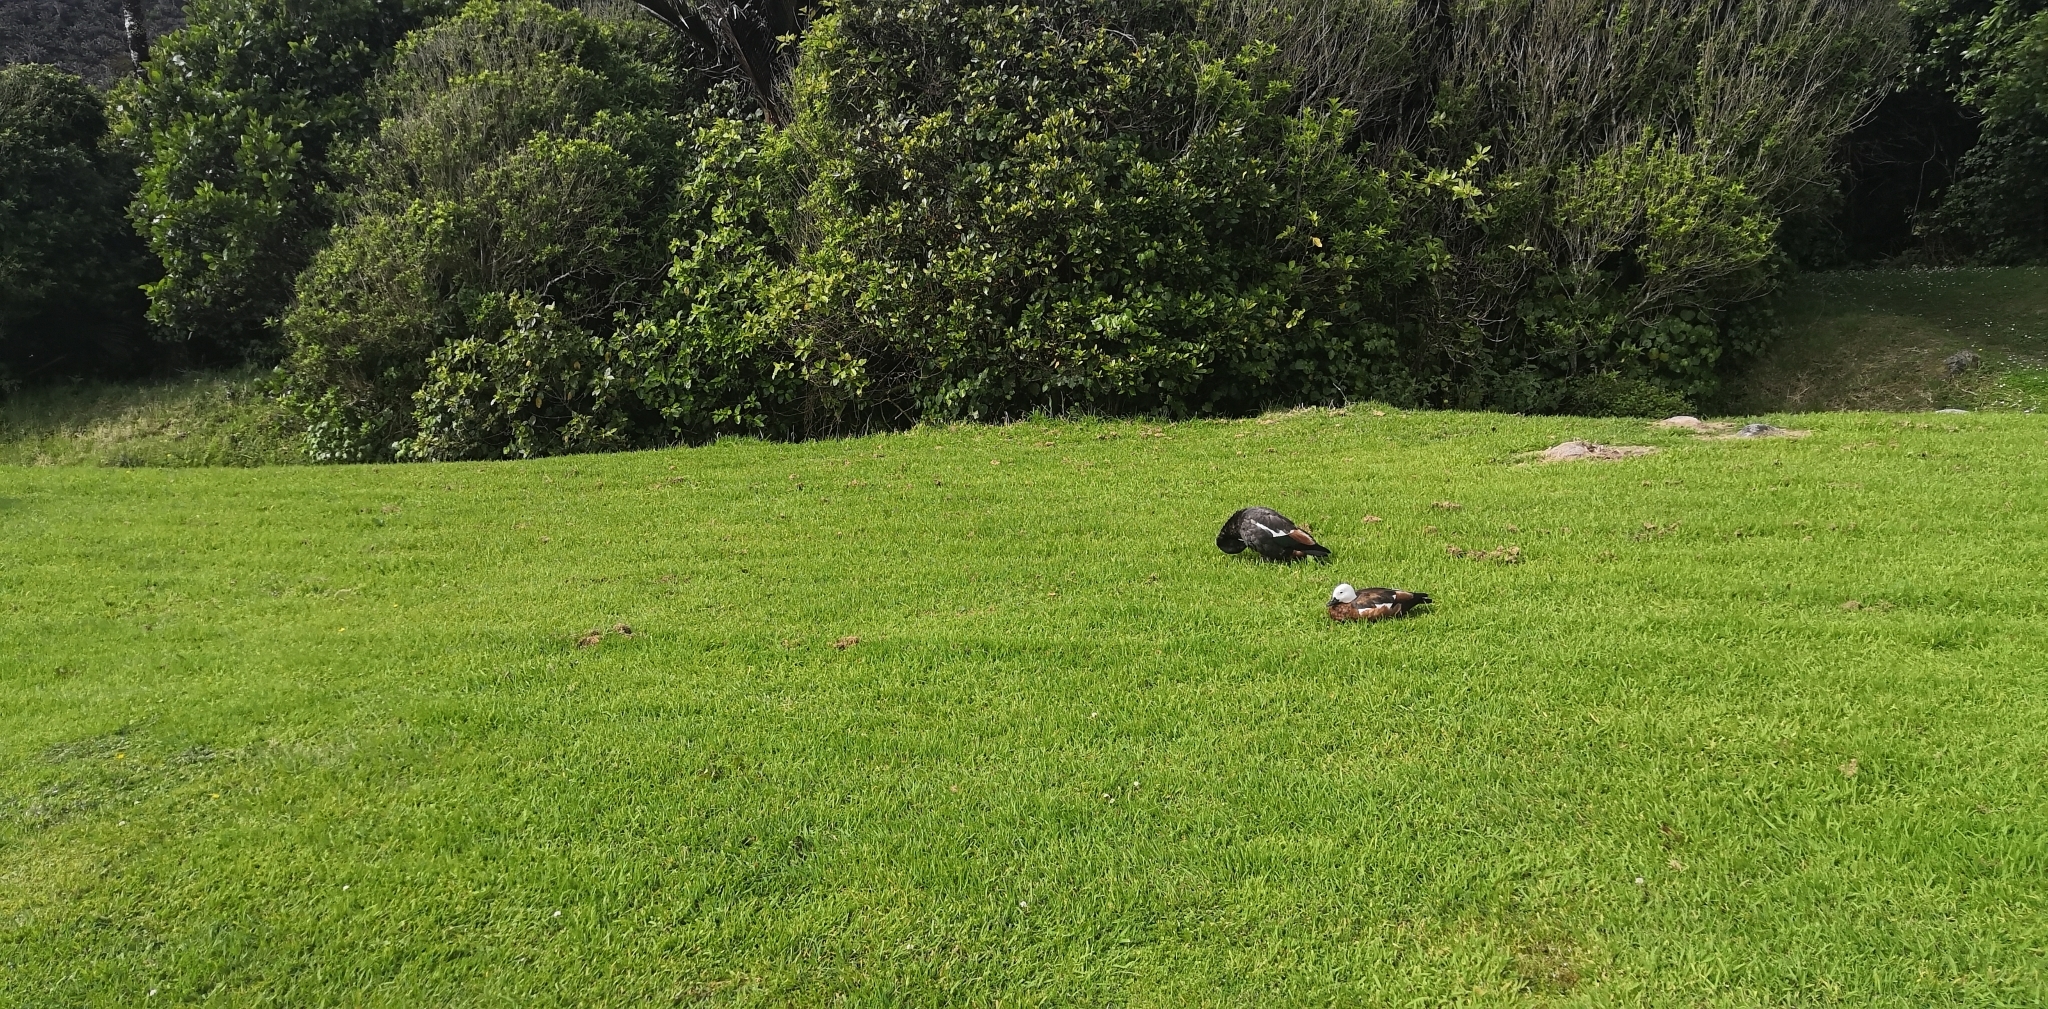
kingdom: Animalia
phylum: Chordata
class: Aves
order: Anseriformes
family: Anatidae
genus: Tadorna
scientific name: Tadorna variegata
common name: Paradise shelduck
